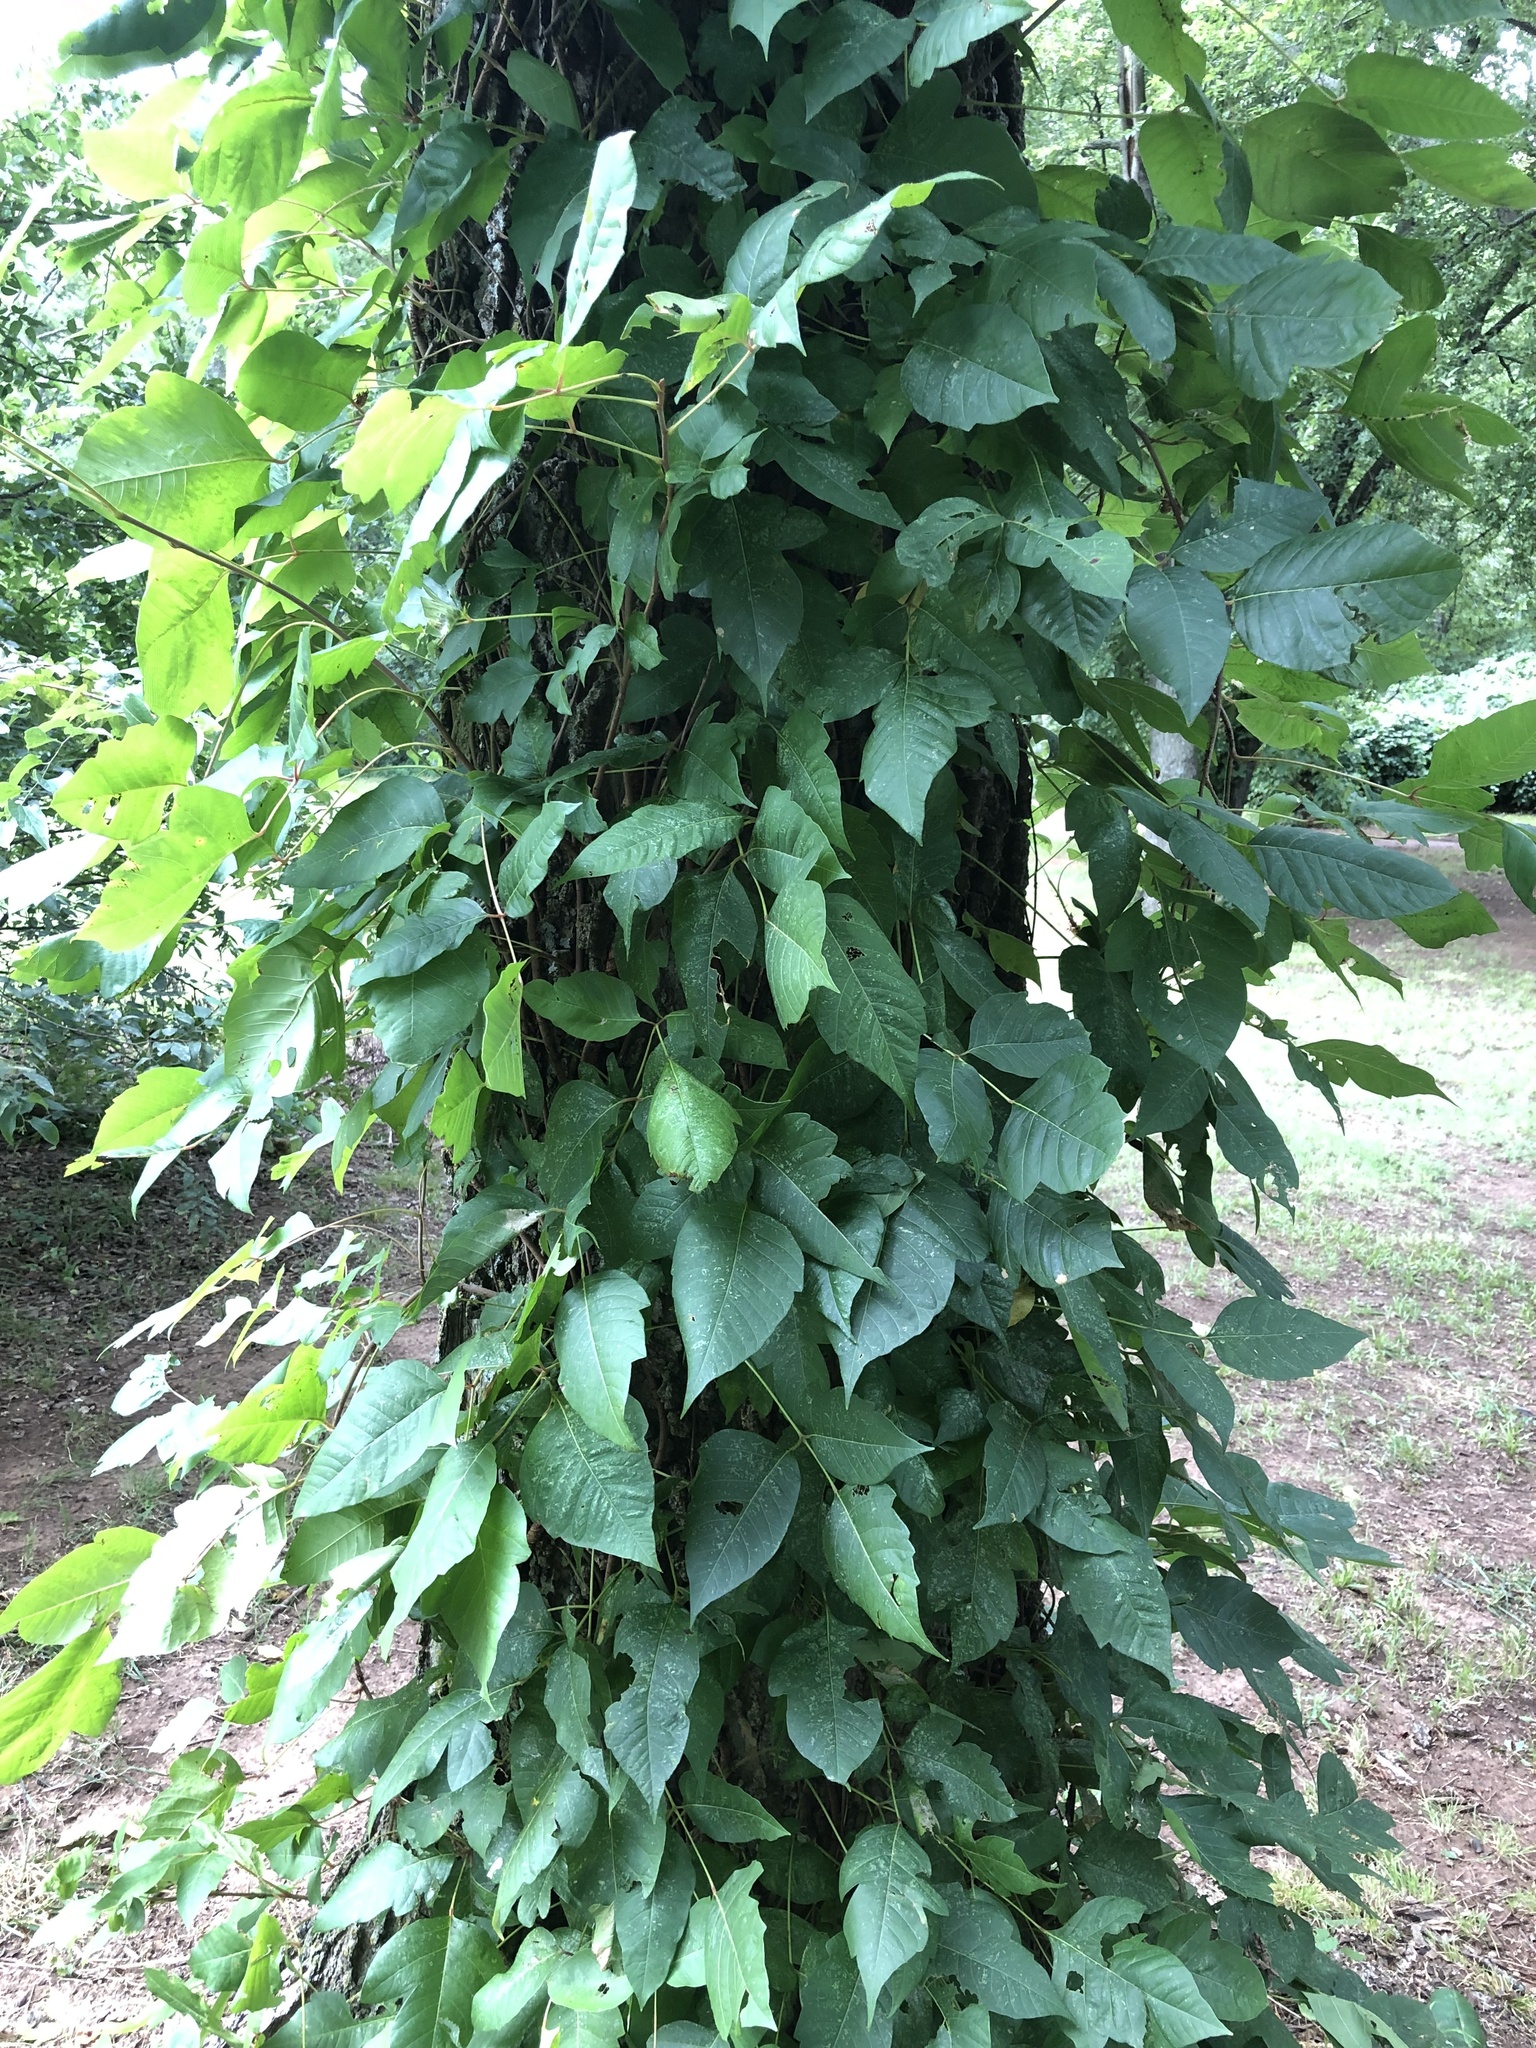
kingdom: Plantae
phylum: Tracheophyta
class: Magnoliopsida
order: Sapindales
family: Anacardiaceae
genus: Toxicodendron
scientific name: Toxicodendron radicans
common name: Poison ivy
